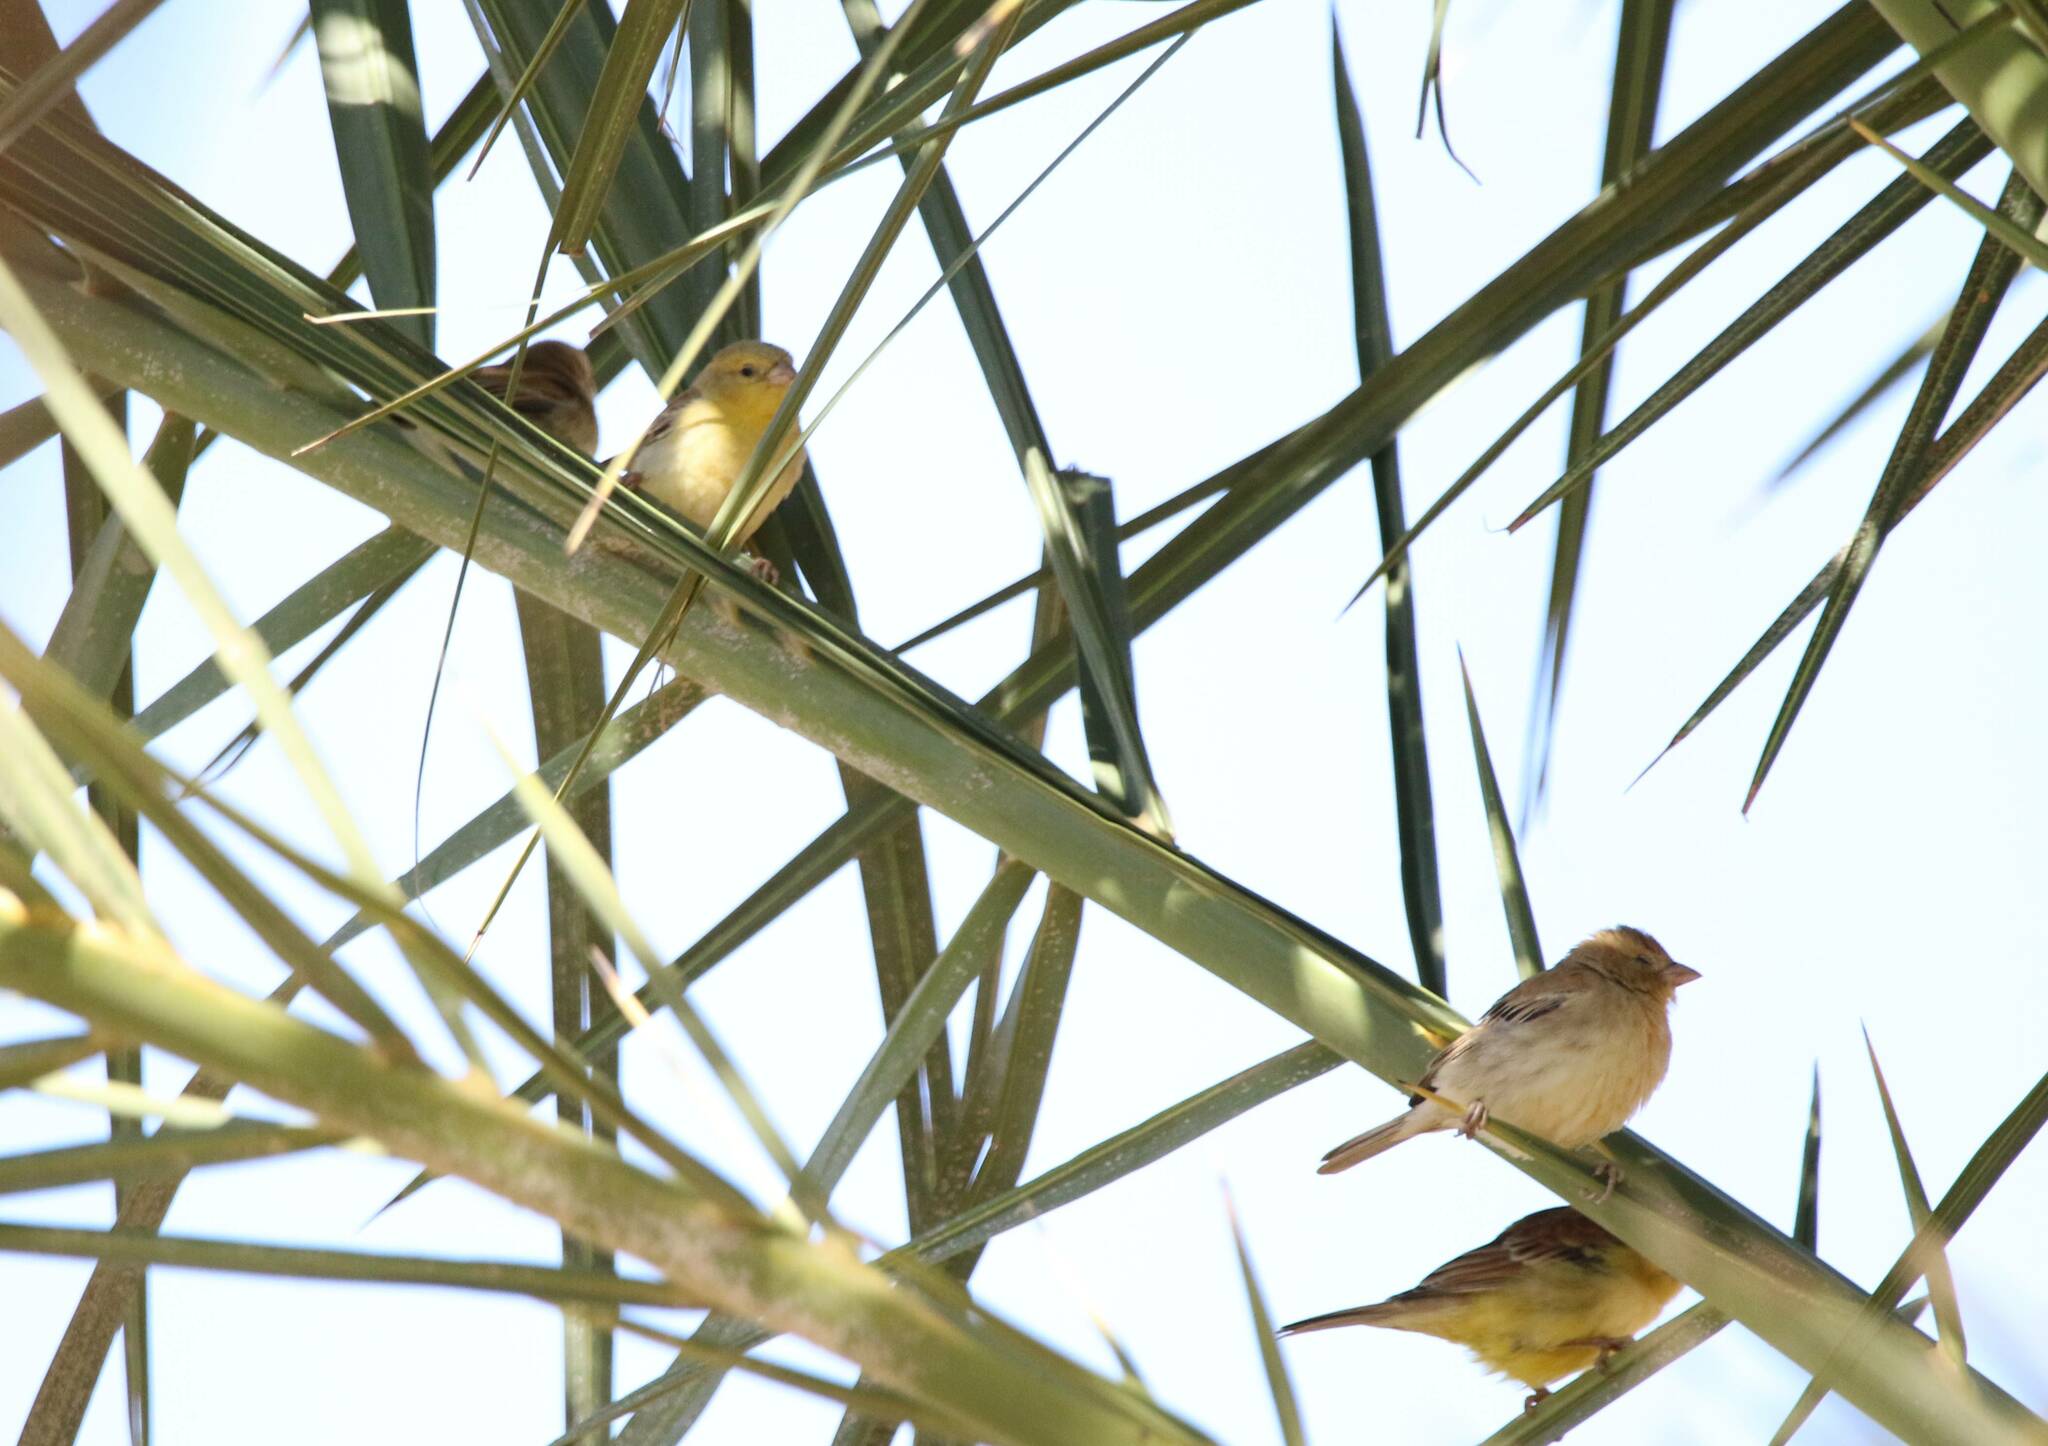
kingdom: Animalia
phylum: Chordata
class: Aves
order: Passeriformes
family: Passeridae
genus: Passer
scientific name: Passer luteus
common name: Sudan golden sparrow
